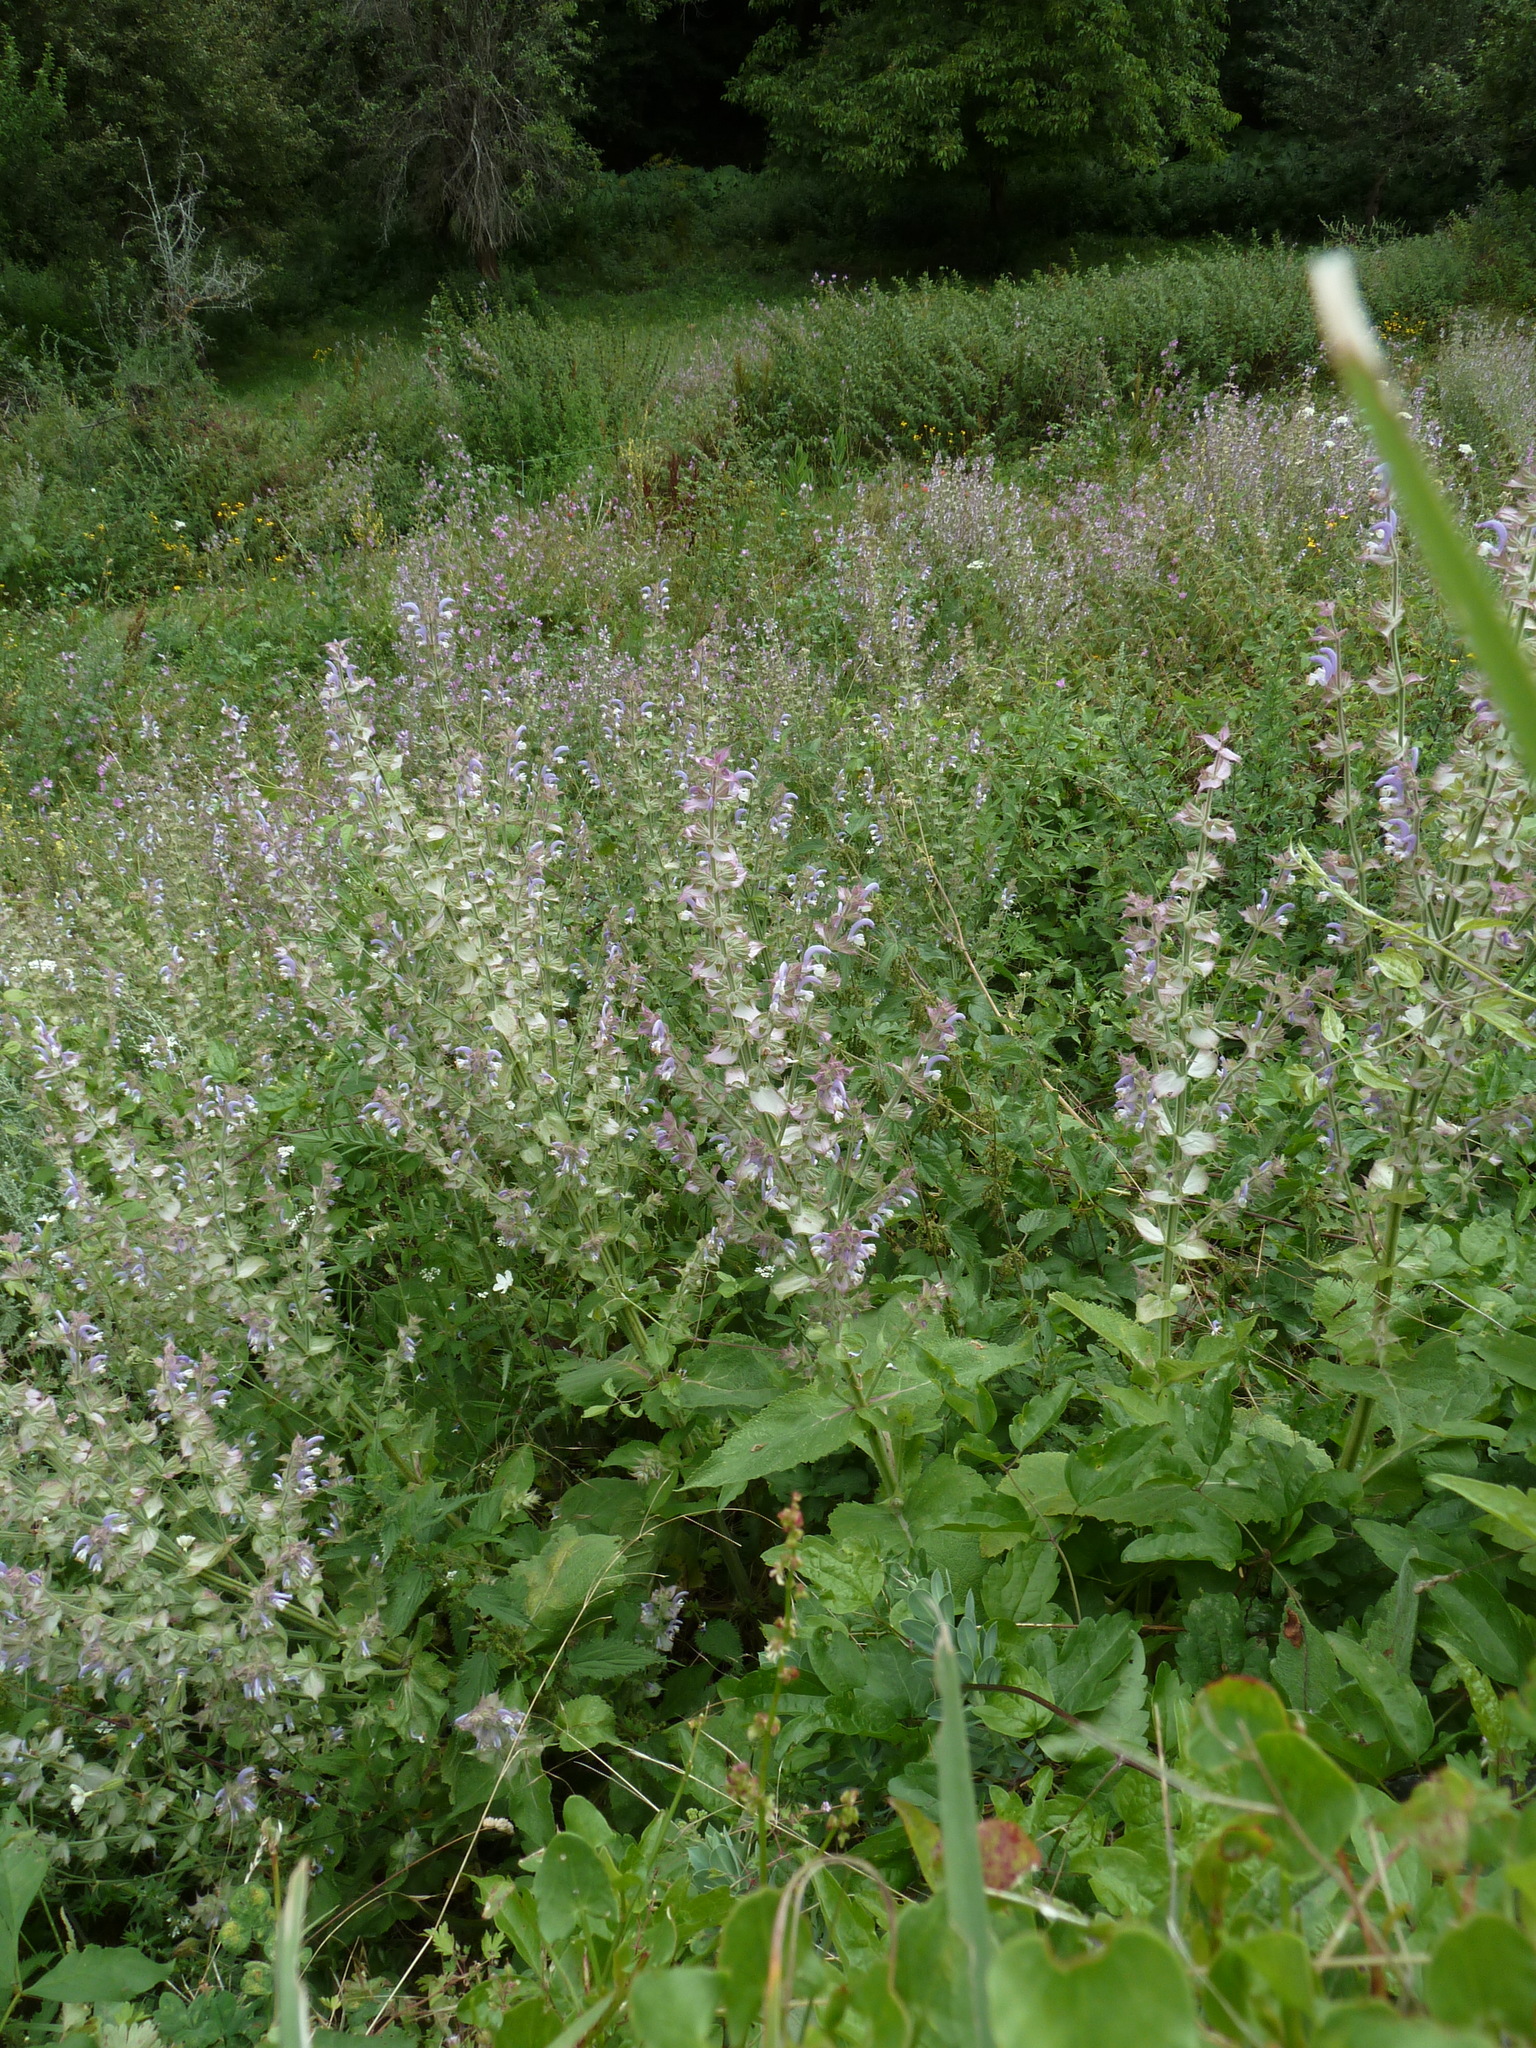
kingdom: Plantae
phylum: Tracheophyta
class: Magnoliopsida
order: Lamiales
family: Lamiaceae
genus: Salvia
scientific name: Salvia sclarea
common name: Clary
